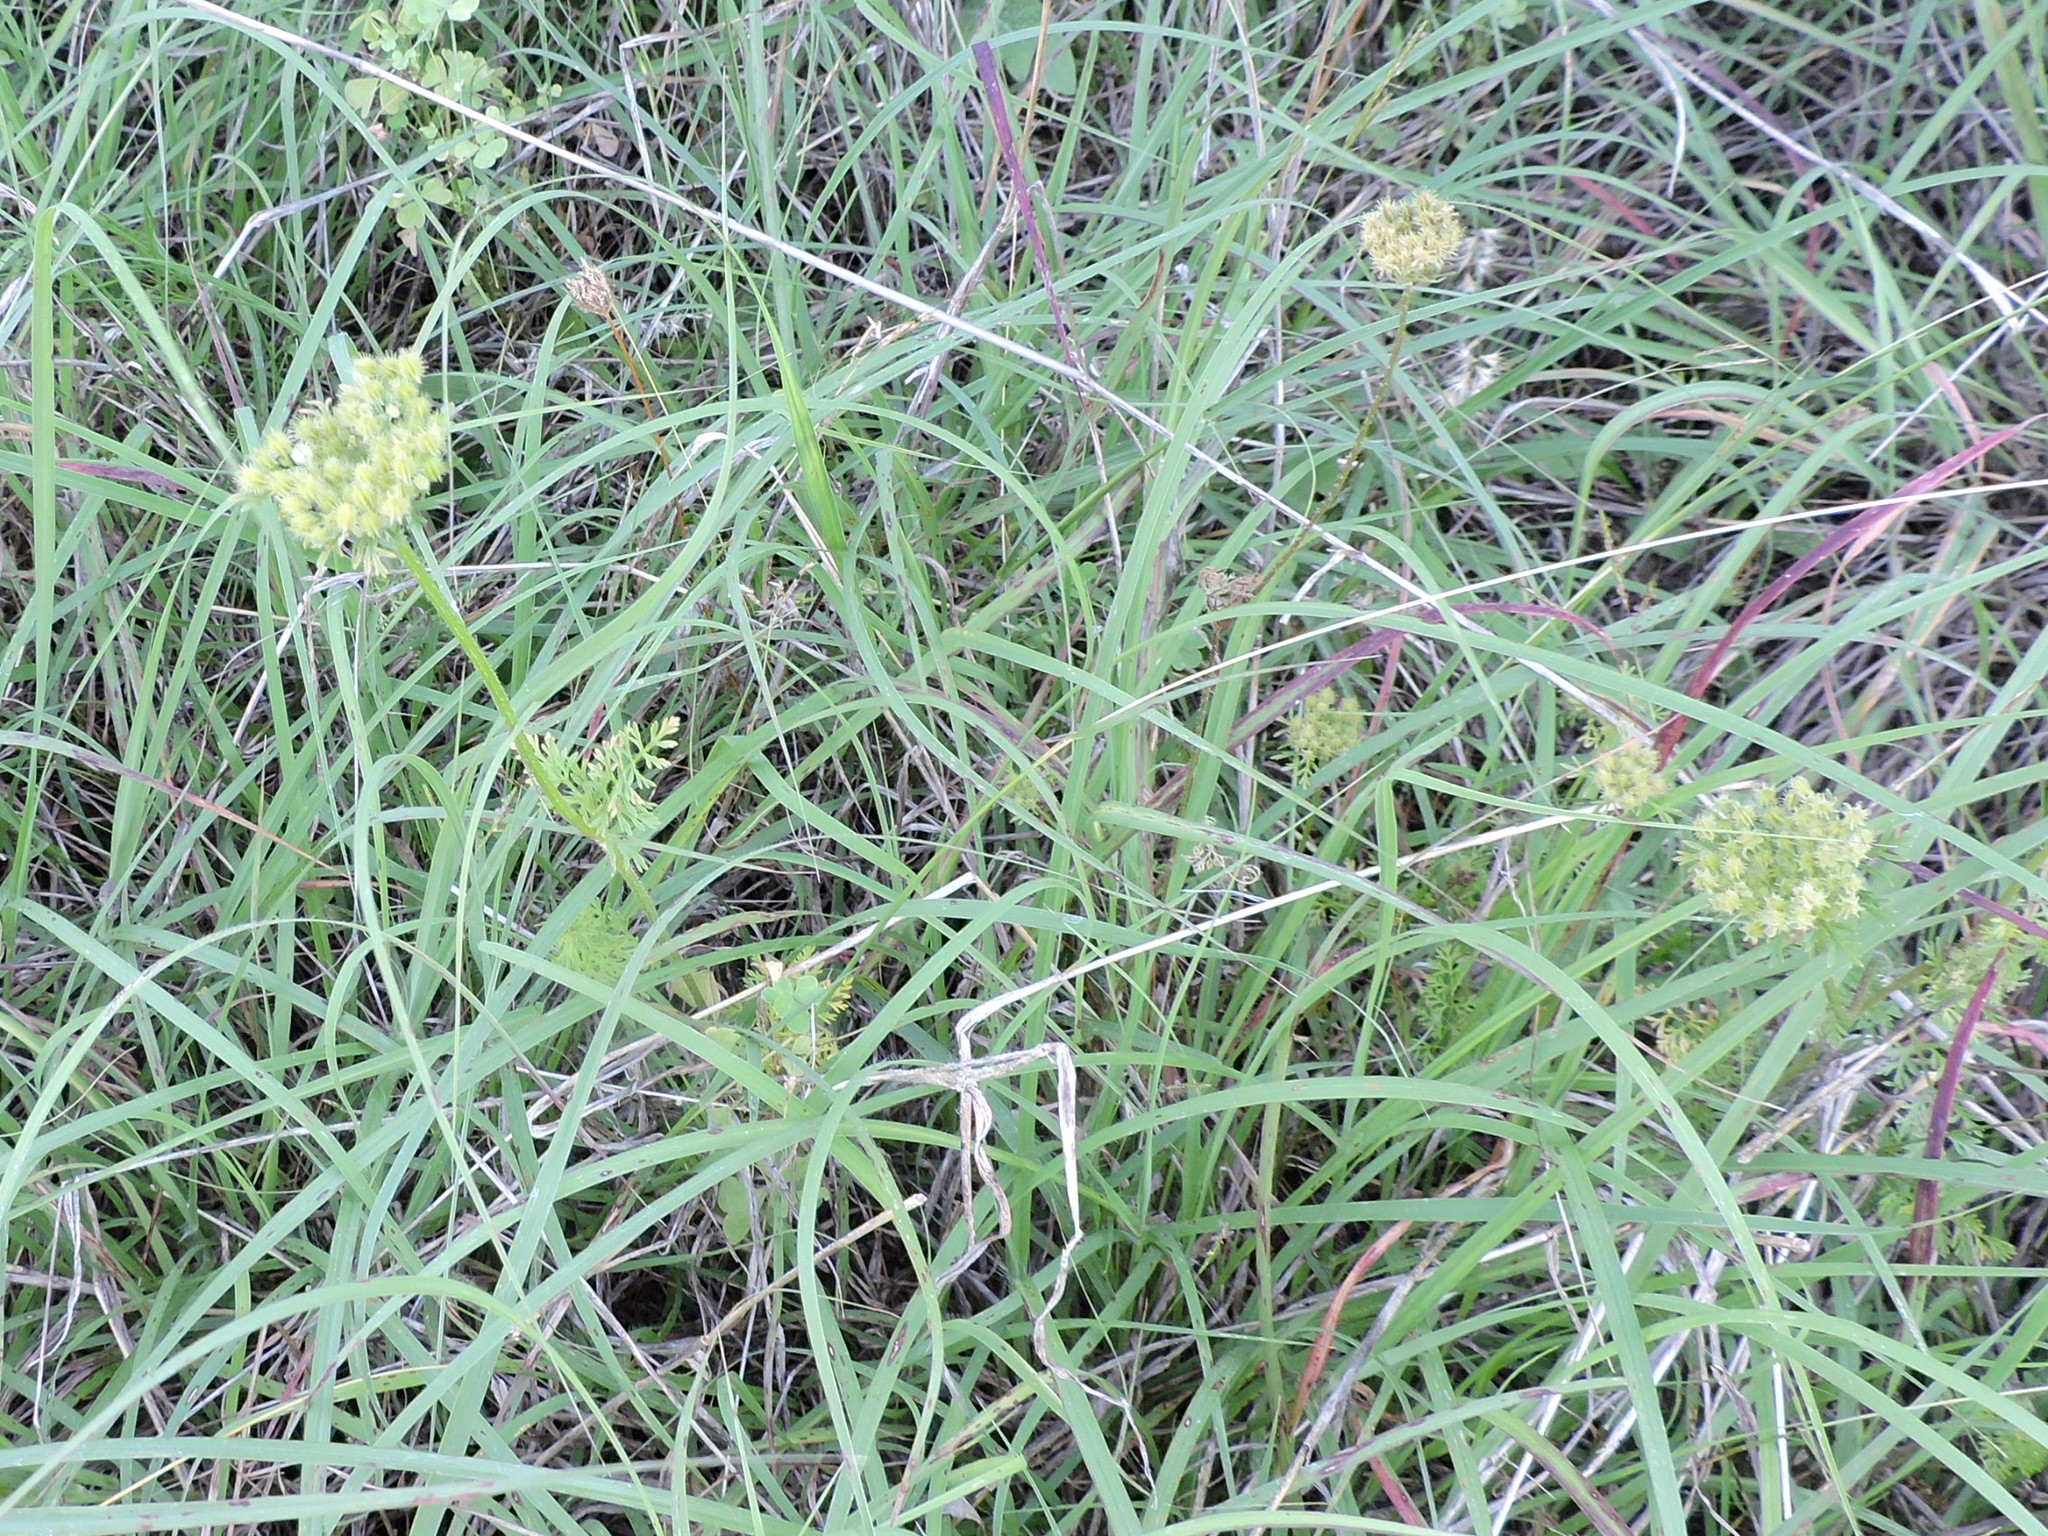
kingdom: Plantae
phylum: Tracheophyta
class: Magnoliopsida
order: Apiales
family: Apiaceae
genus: Daucus
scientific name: Daucus pusillus
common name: Southwest wild carrot
